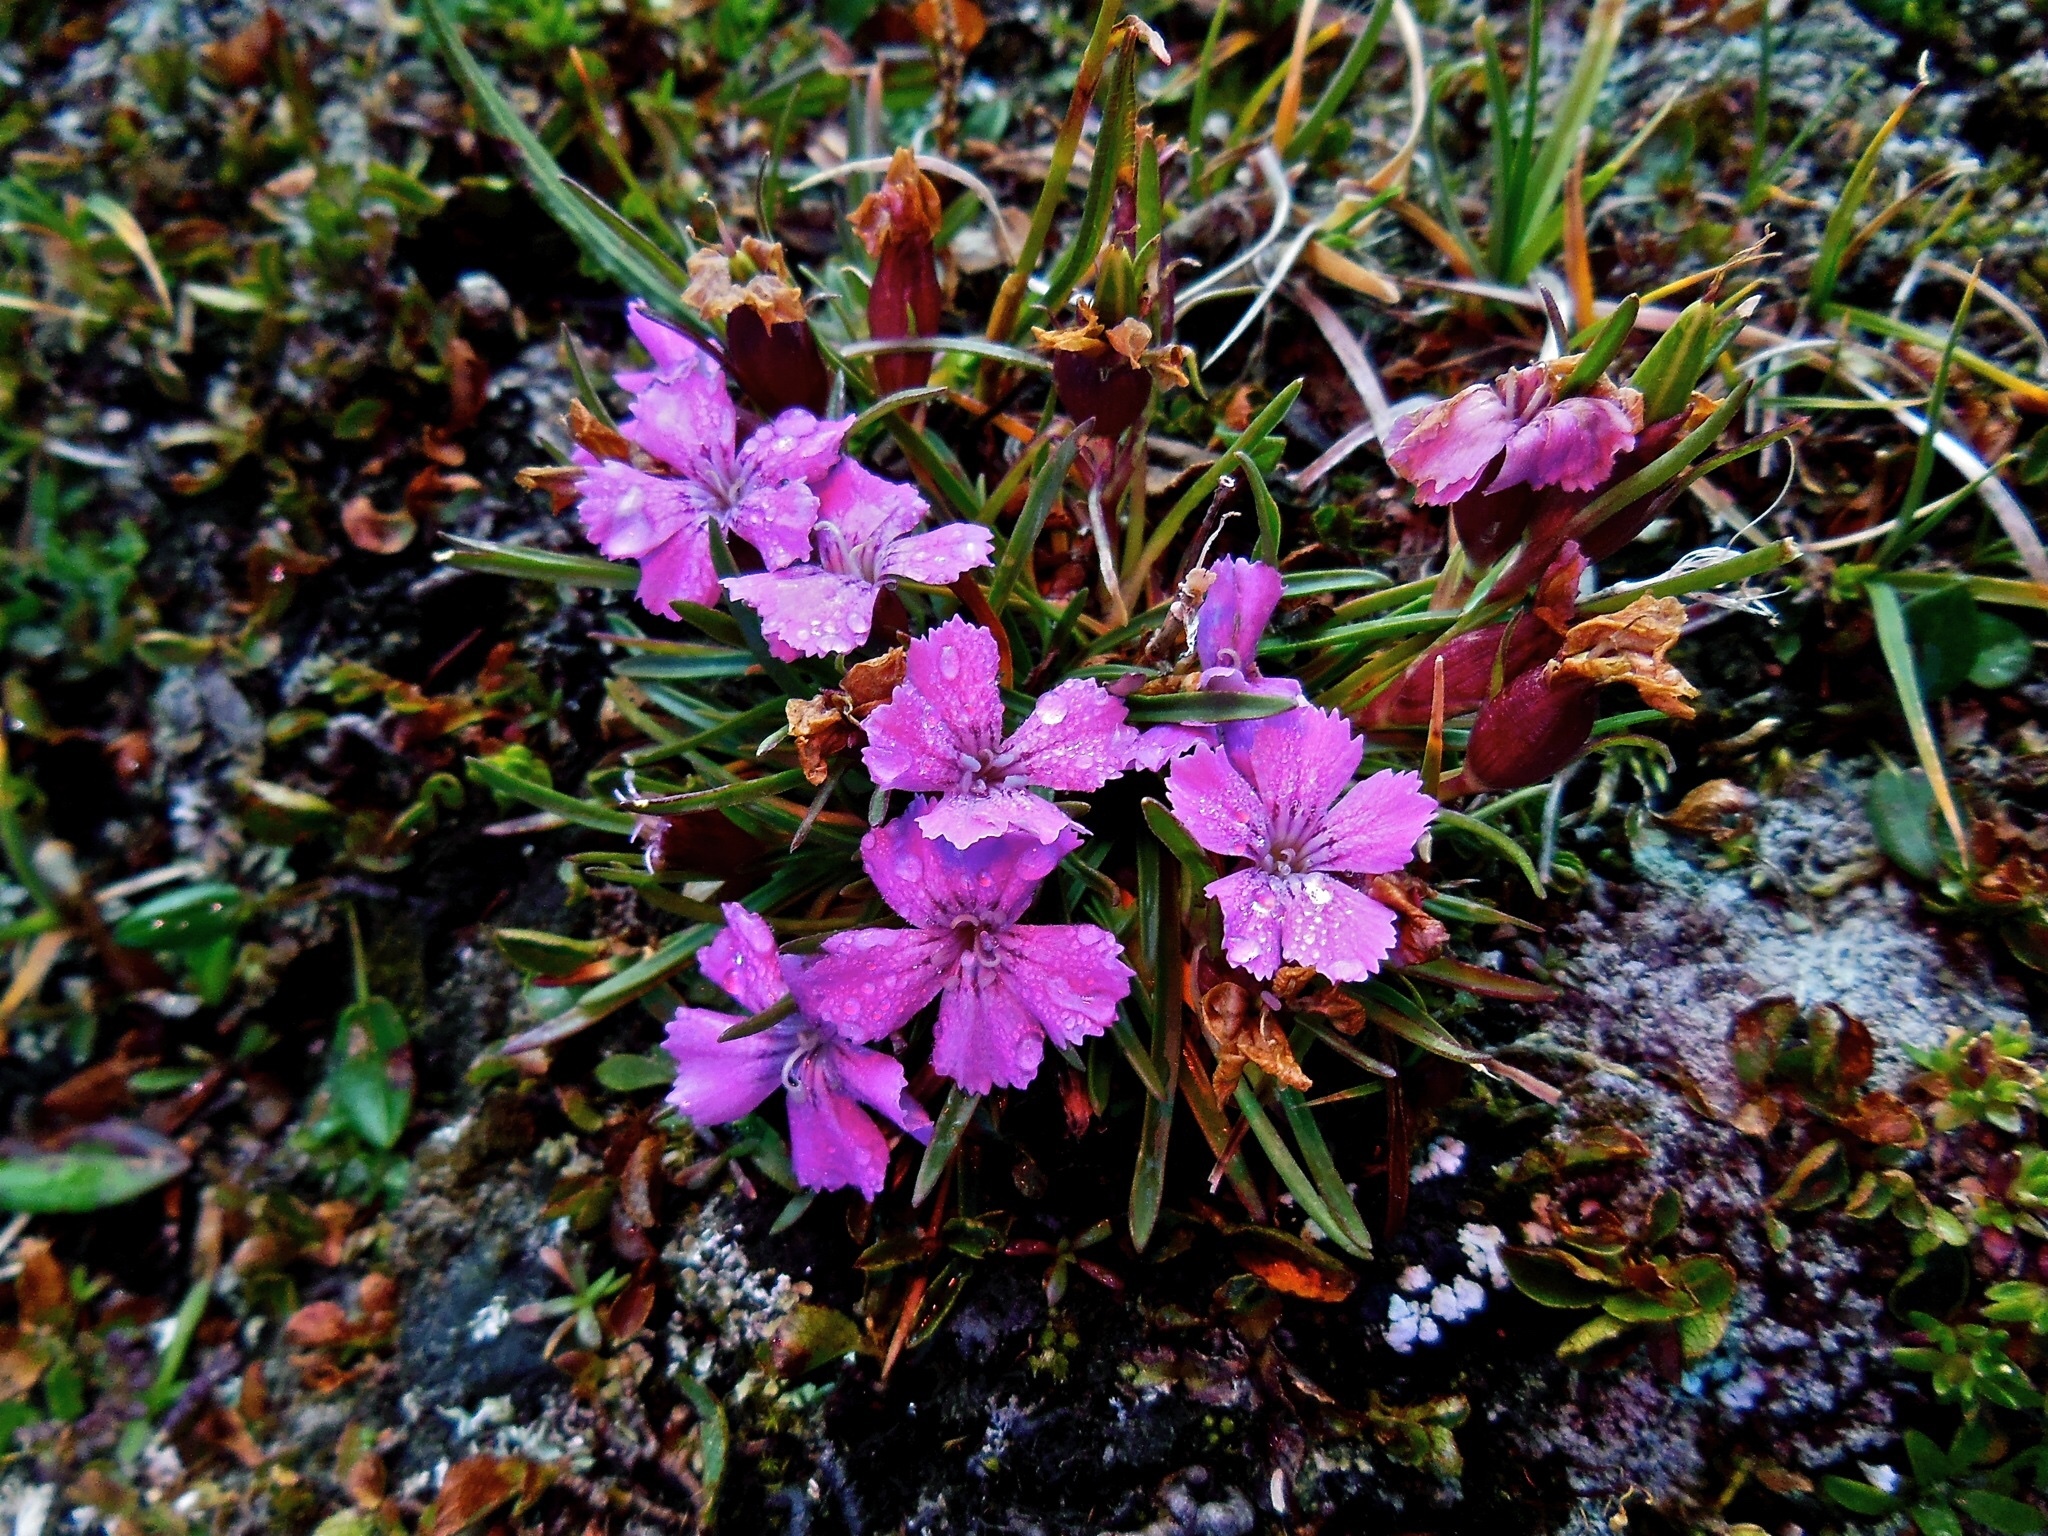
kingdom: Plantae
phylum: Tracheophyta
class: Magnoliopsida
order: Caryophyllales
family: Caryophyllaceae
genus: Dianthus
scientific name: Dianthus glacialis
